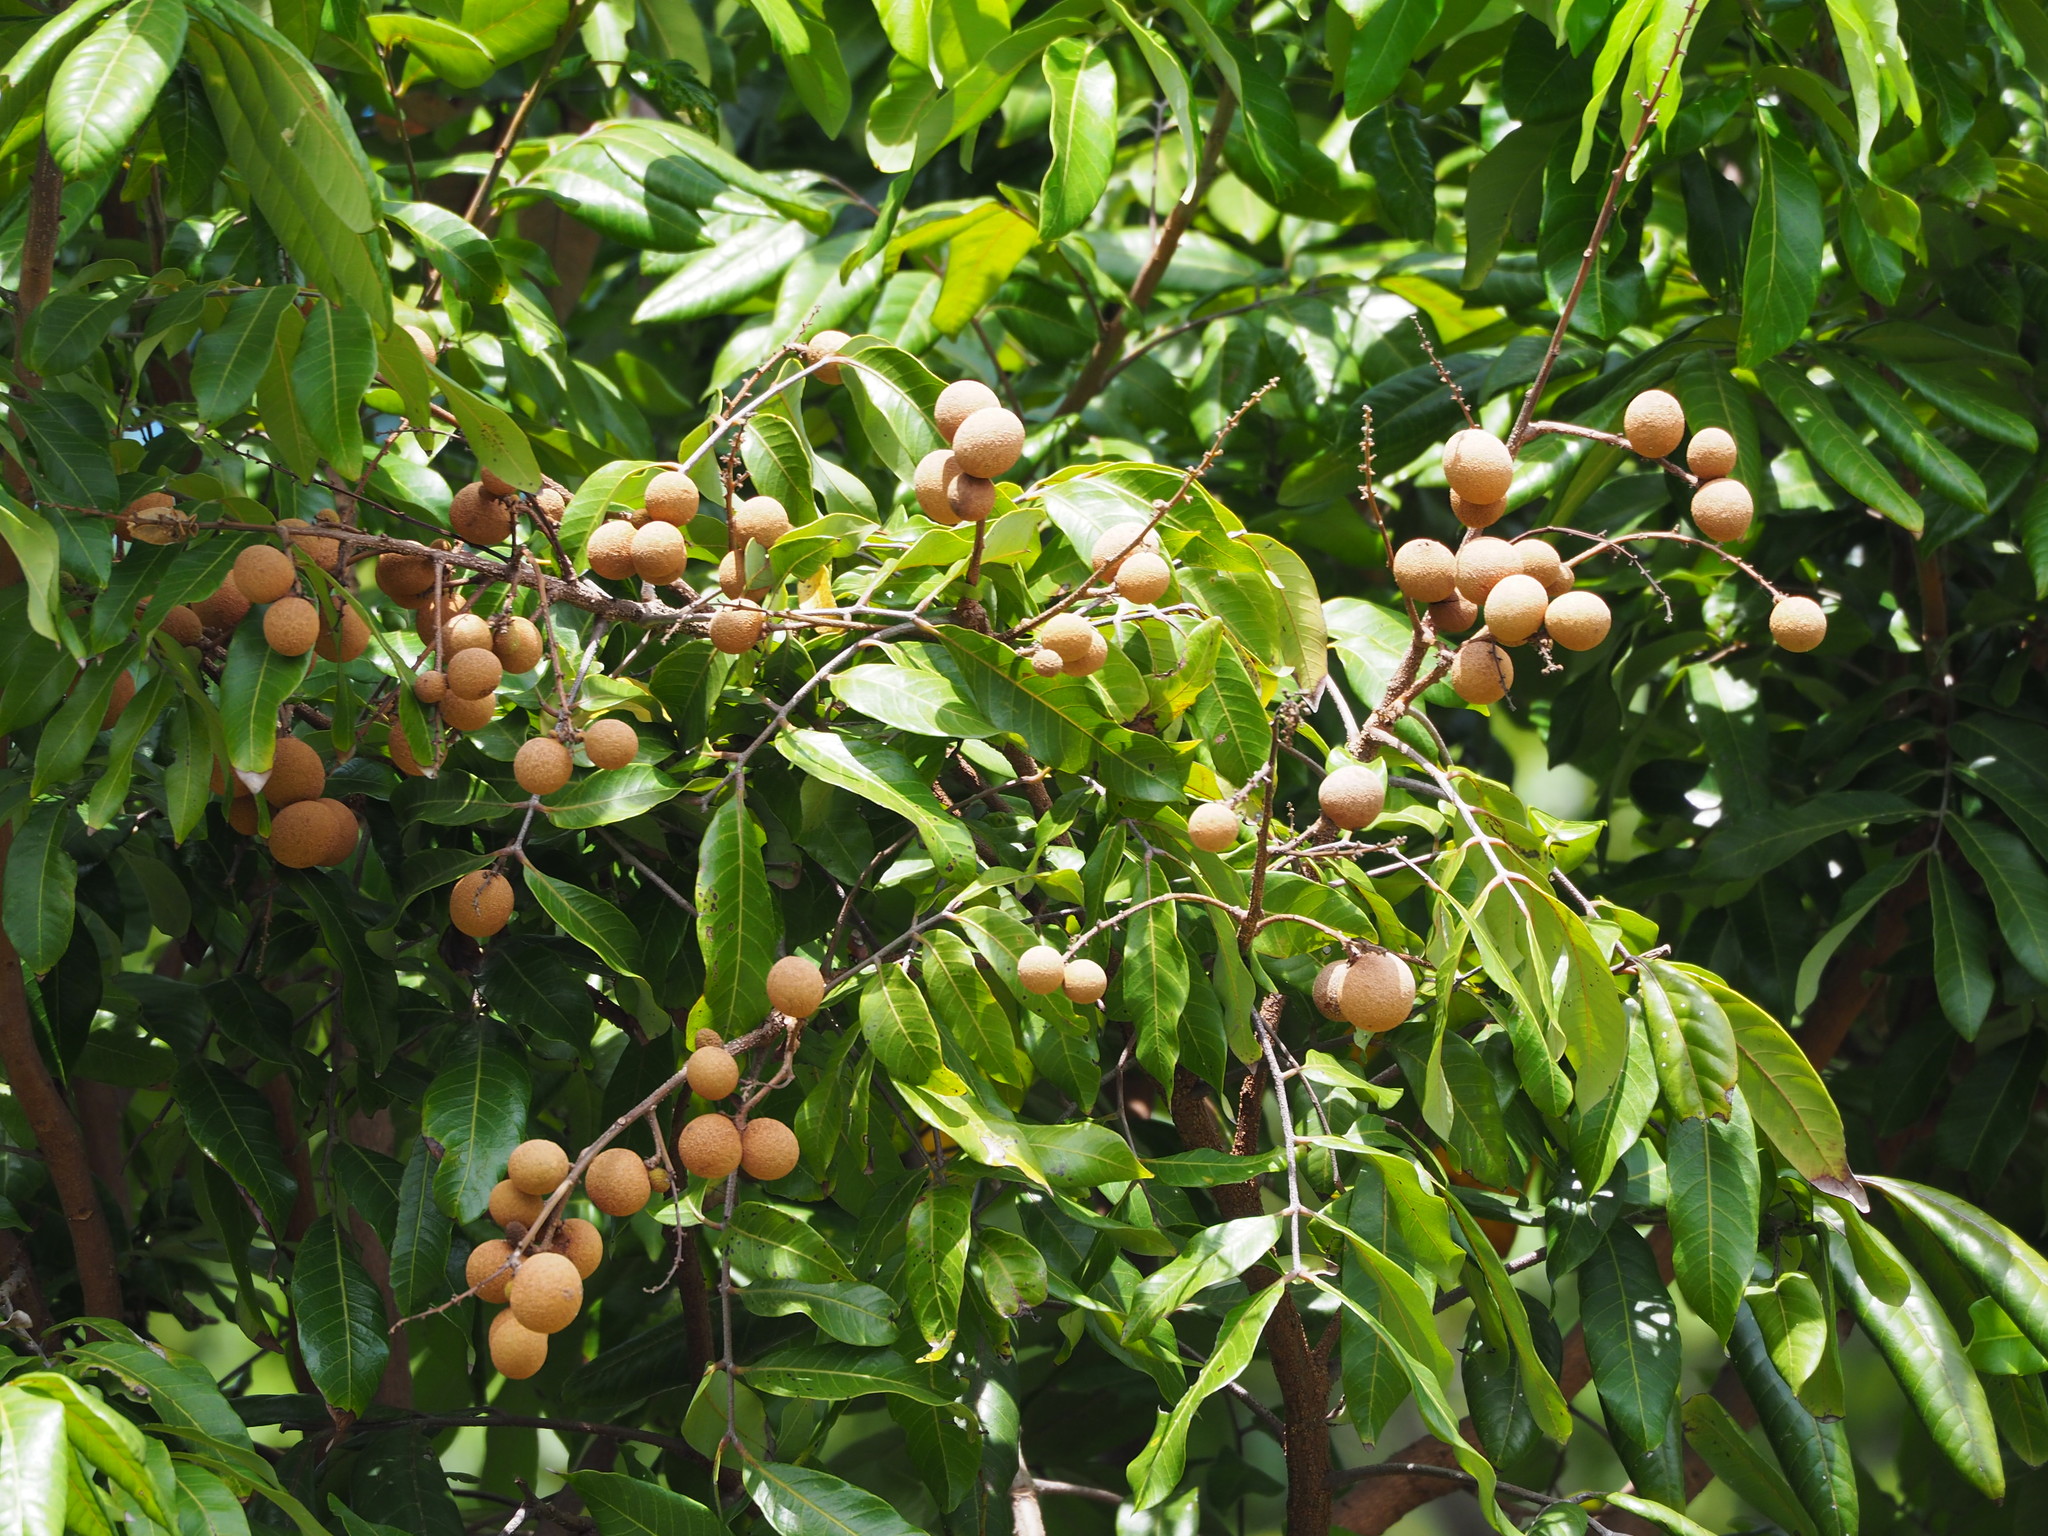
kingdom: Plantae
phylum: Tracheophyta
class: Magnoliopsida
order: Sapindales
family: Sapindaceae
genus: Dimocarpus
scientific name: Dimocarpus longan
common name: Longan
